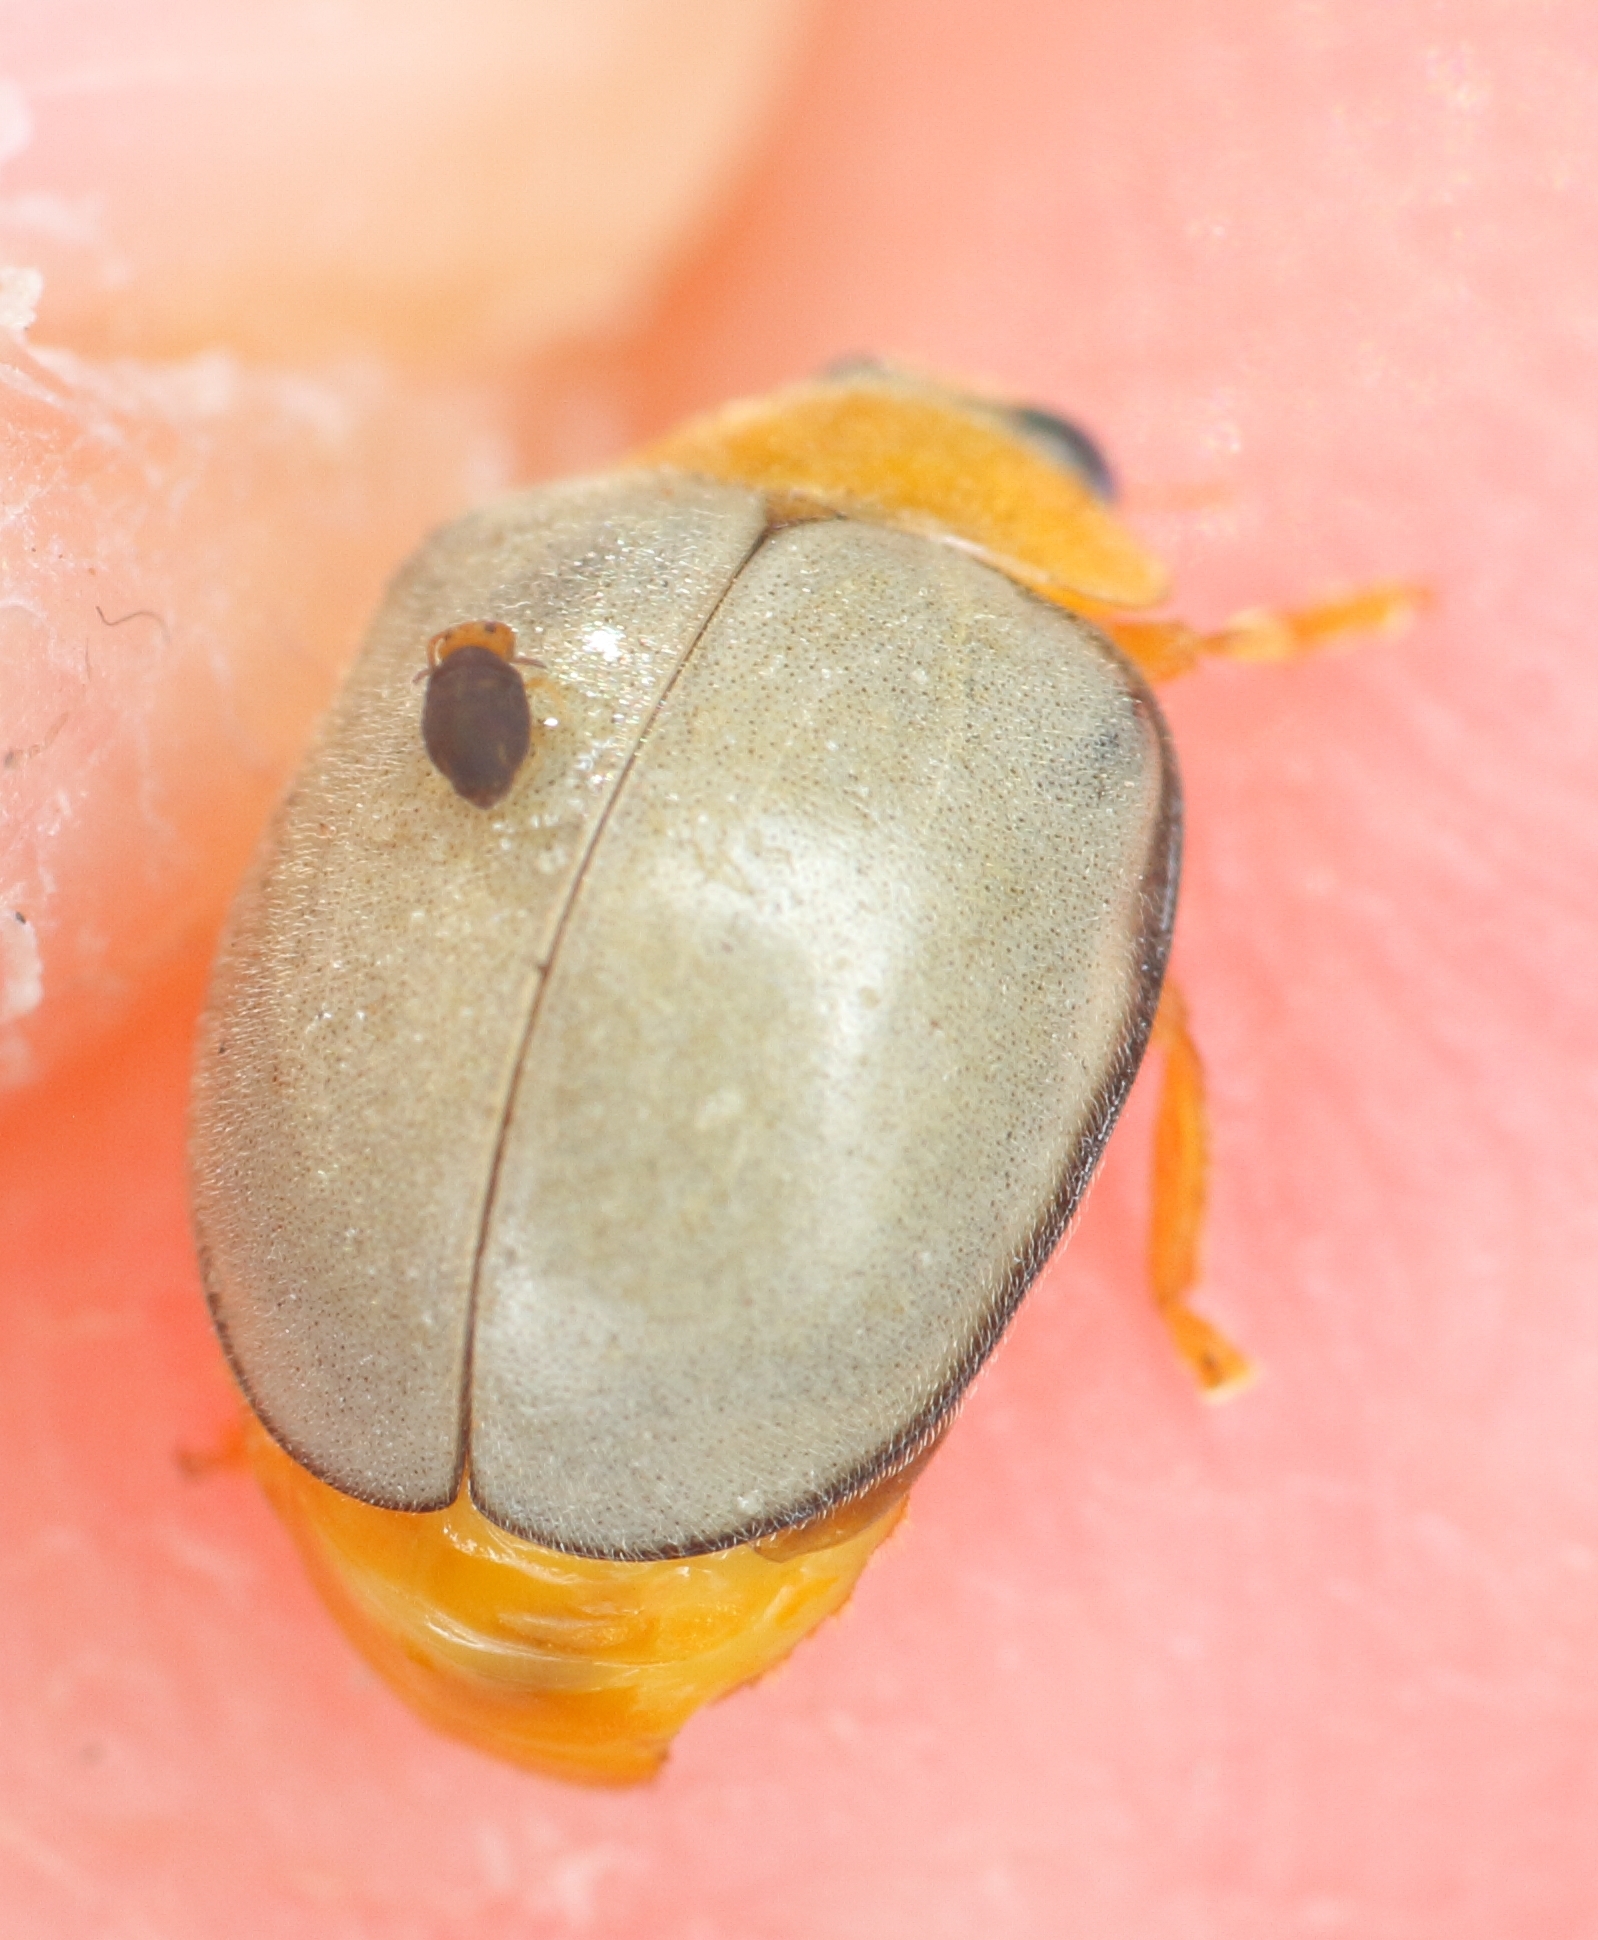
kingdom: Animalia
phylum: Arthropoda
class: Insecta
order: Coleoptera
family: Coccinellidae
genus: Ortalia
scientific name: Ortalia
